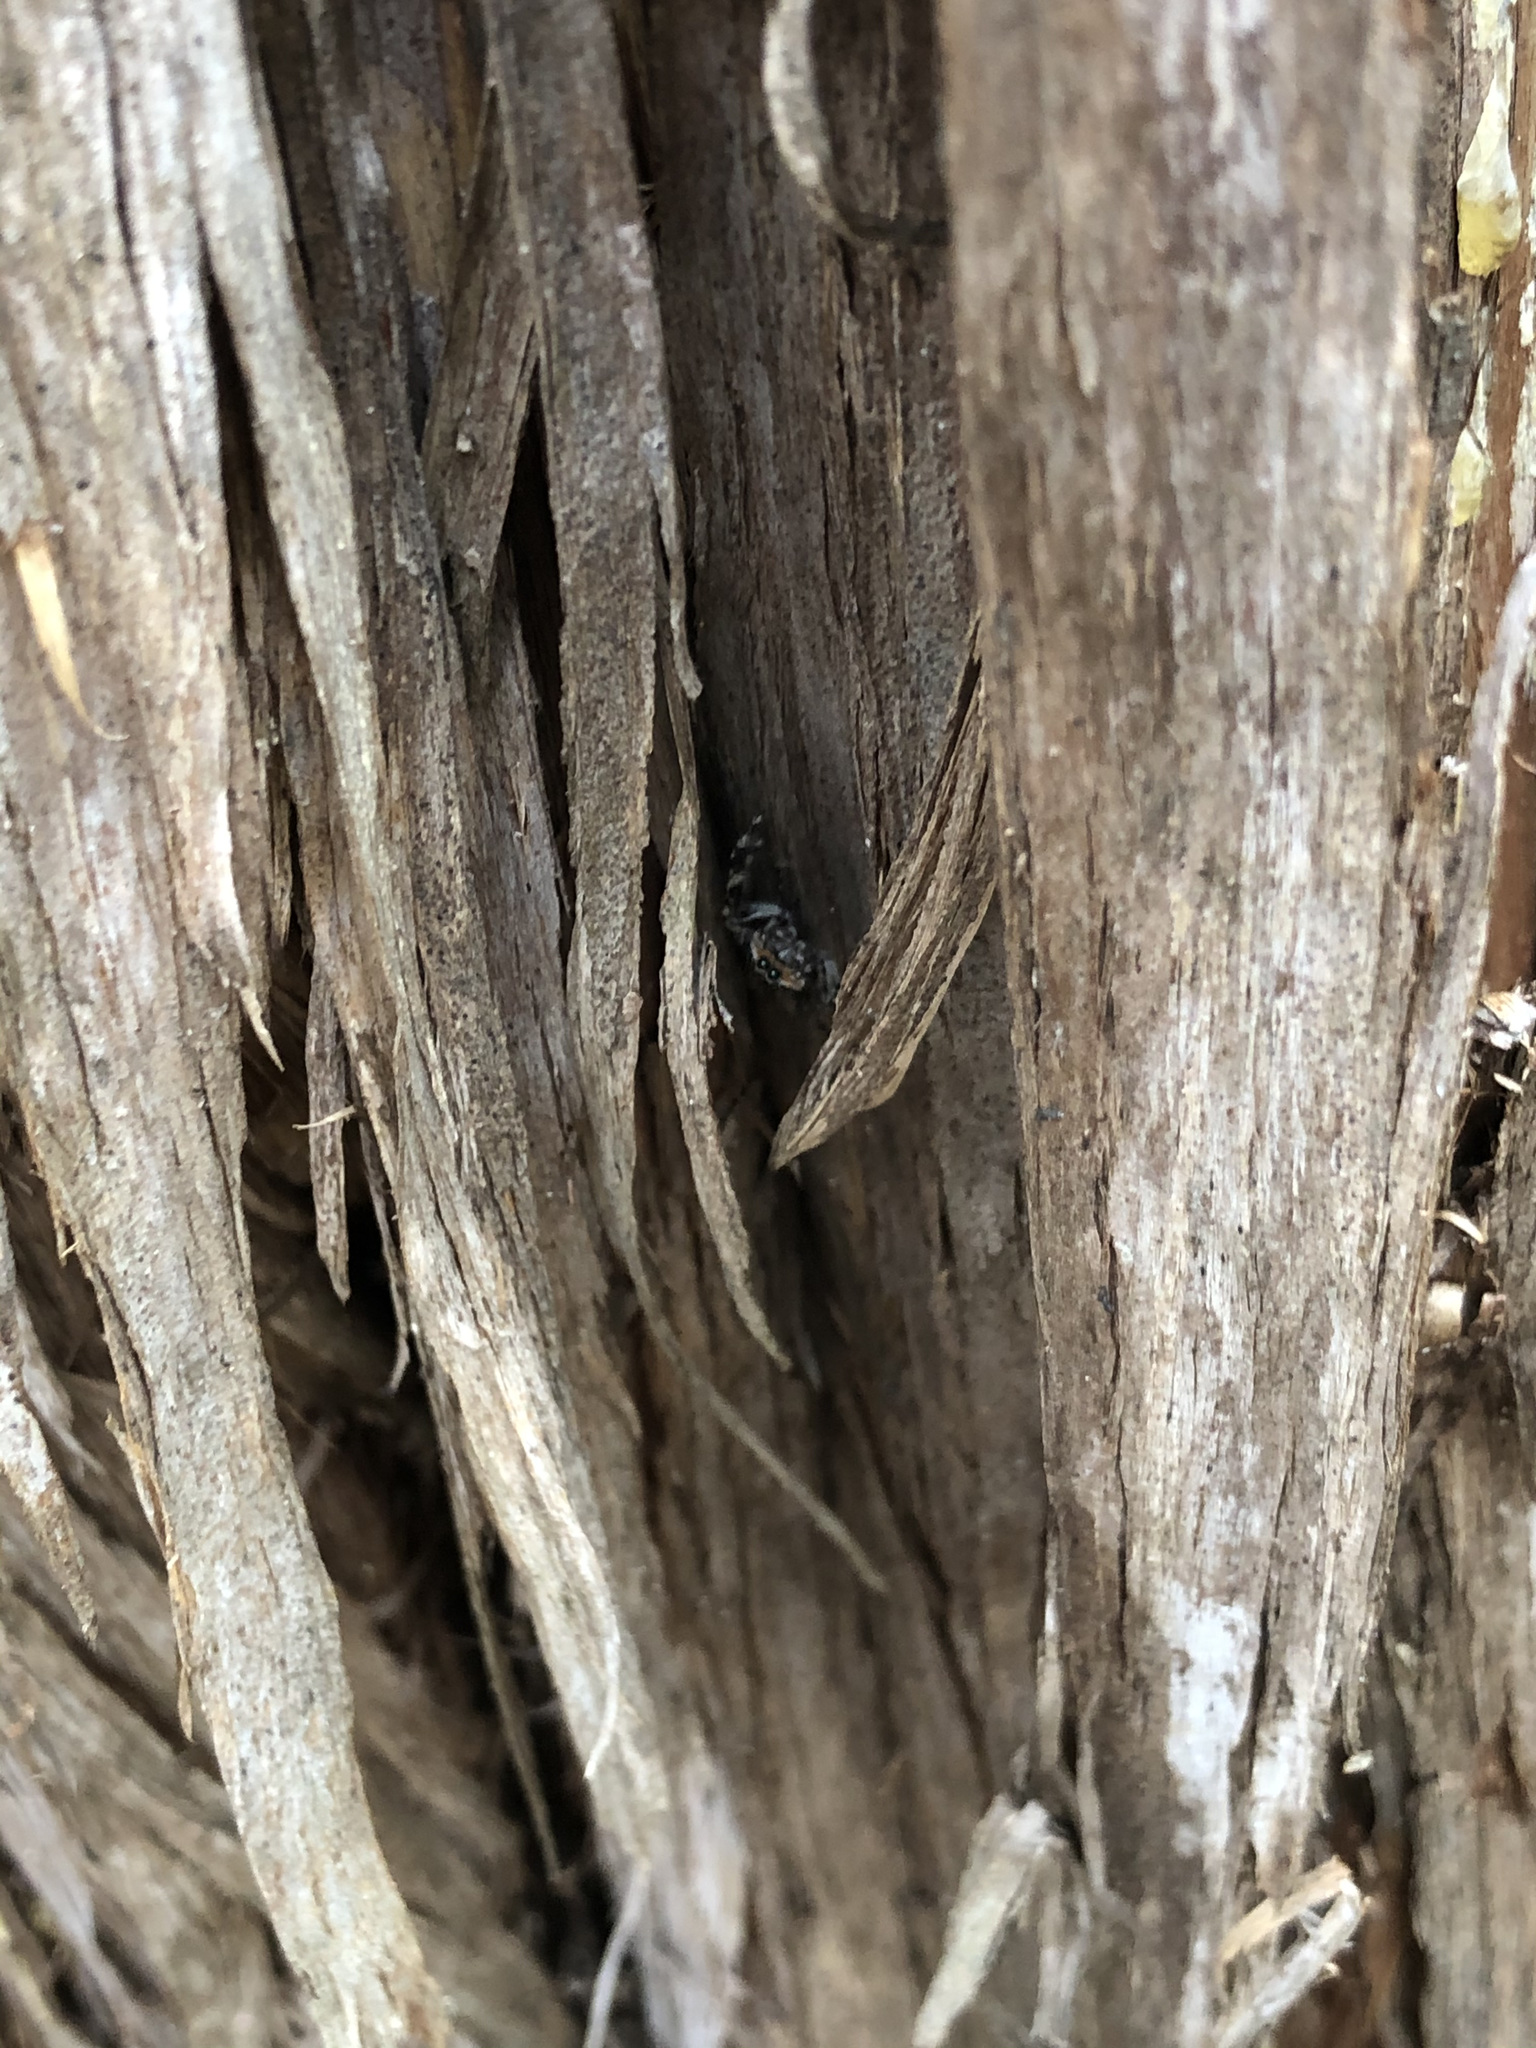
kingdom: Animalia
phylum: Arthropoda
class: Arachnida
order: Araneae
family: Salticidae
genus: Platycryptus
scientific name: Platycryptus undatus
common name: Tan jumping spider
